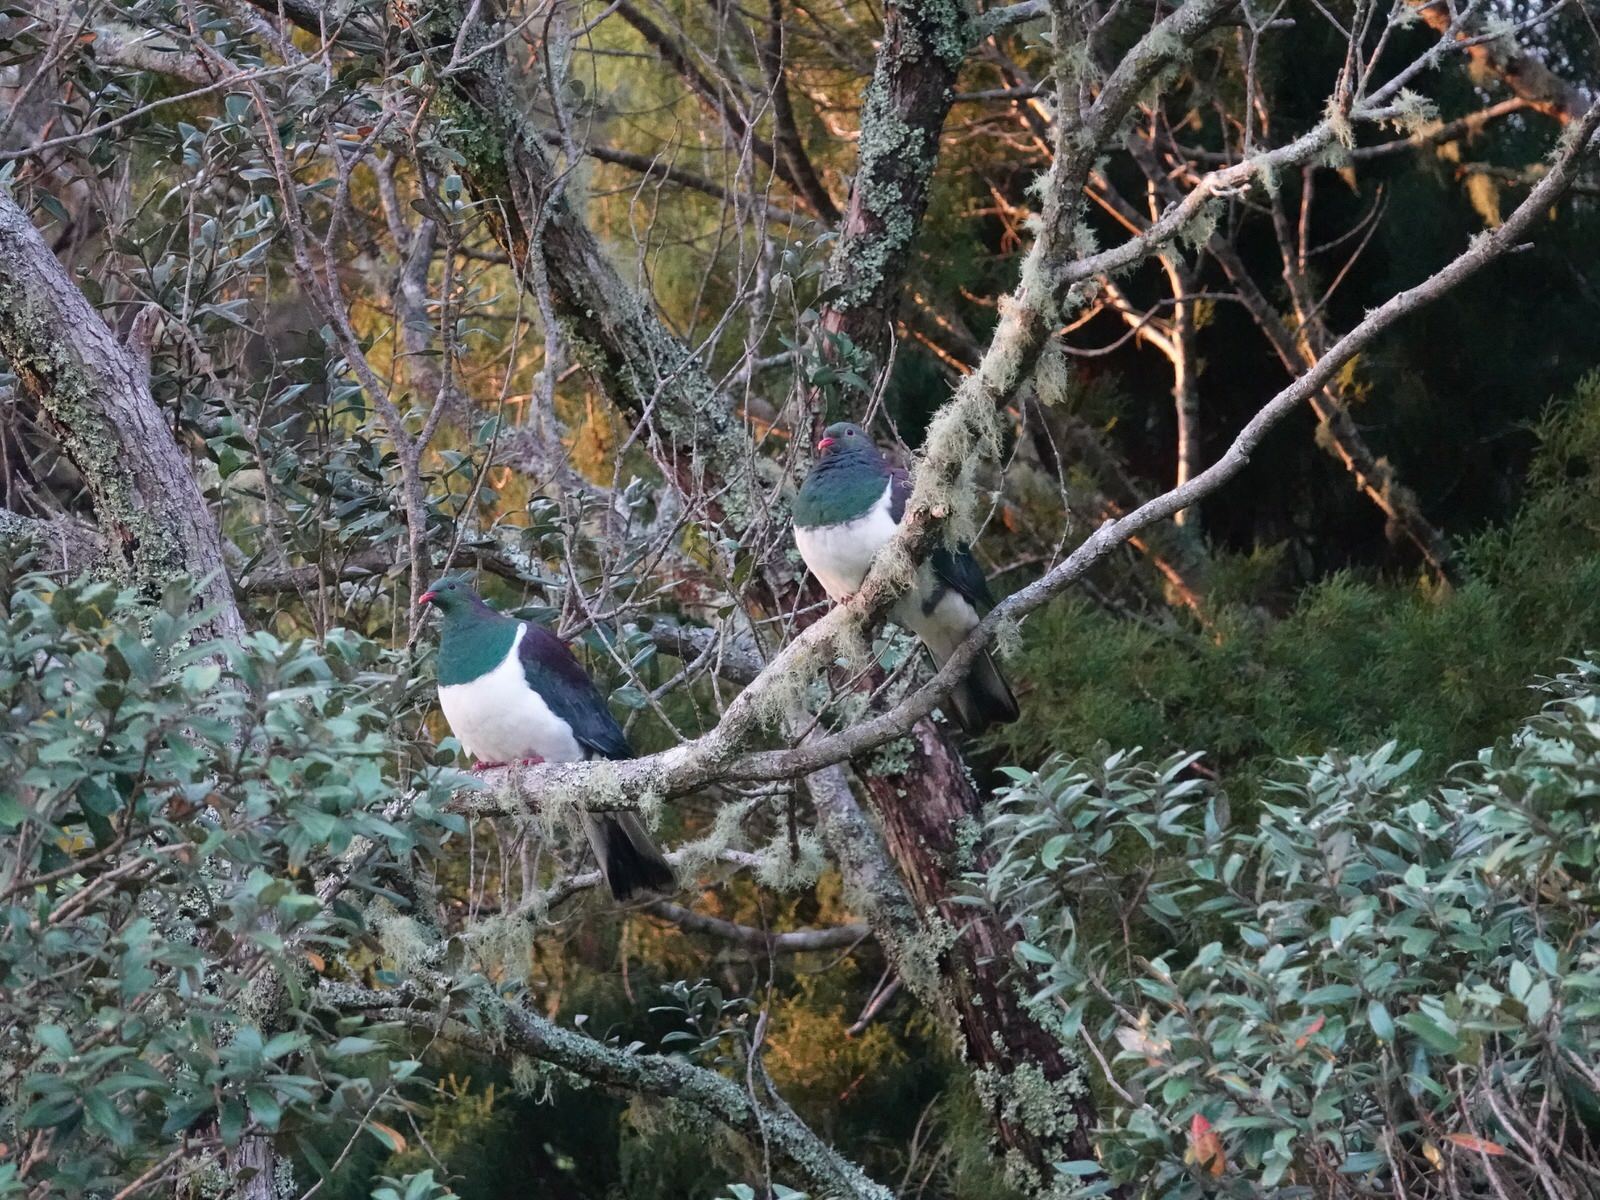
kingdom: Animalia
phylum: Chordata
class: Aves
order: Columbiformes
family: Columbidae
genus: Hemiphaga
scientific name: Hemiphaga novaeseelandiae
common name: New zealand pigeon
